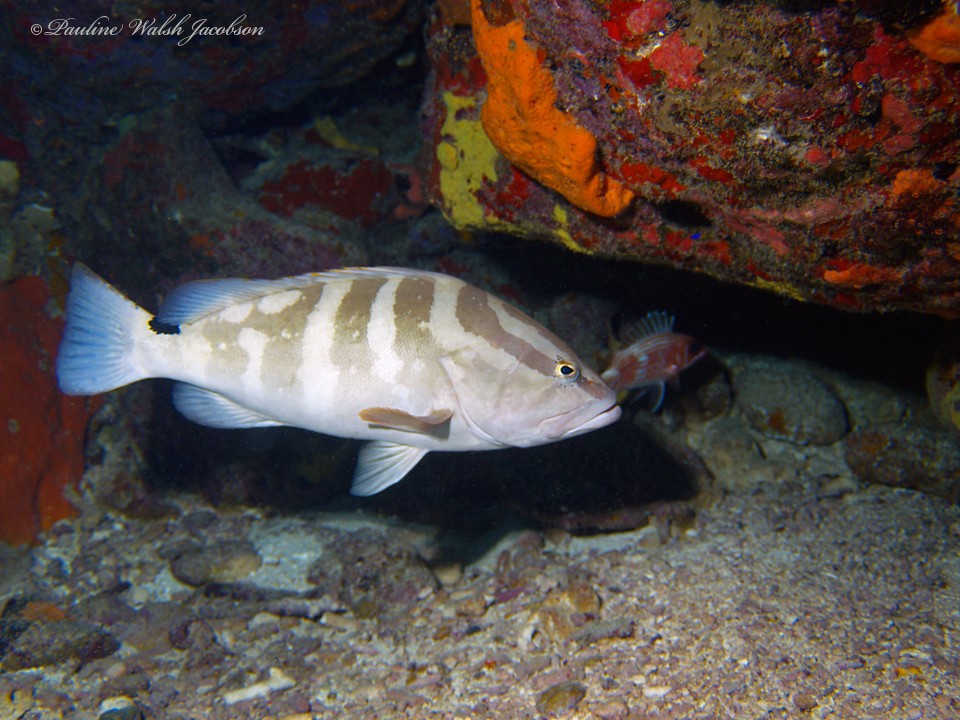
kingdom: Animalia
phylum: Chordata
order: Perciformes
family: Serranidae
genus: Epinephelus
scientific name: Epinephelus striatus
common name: Nassau grouper
